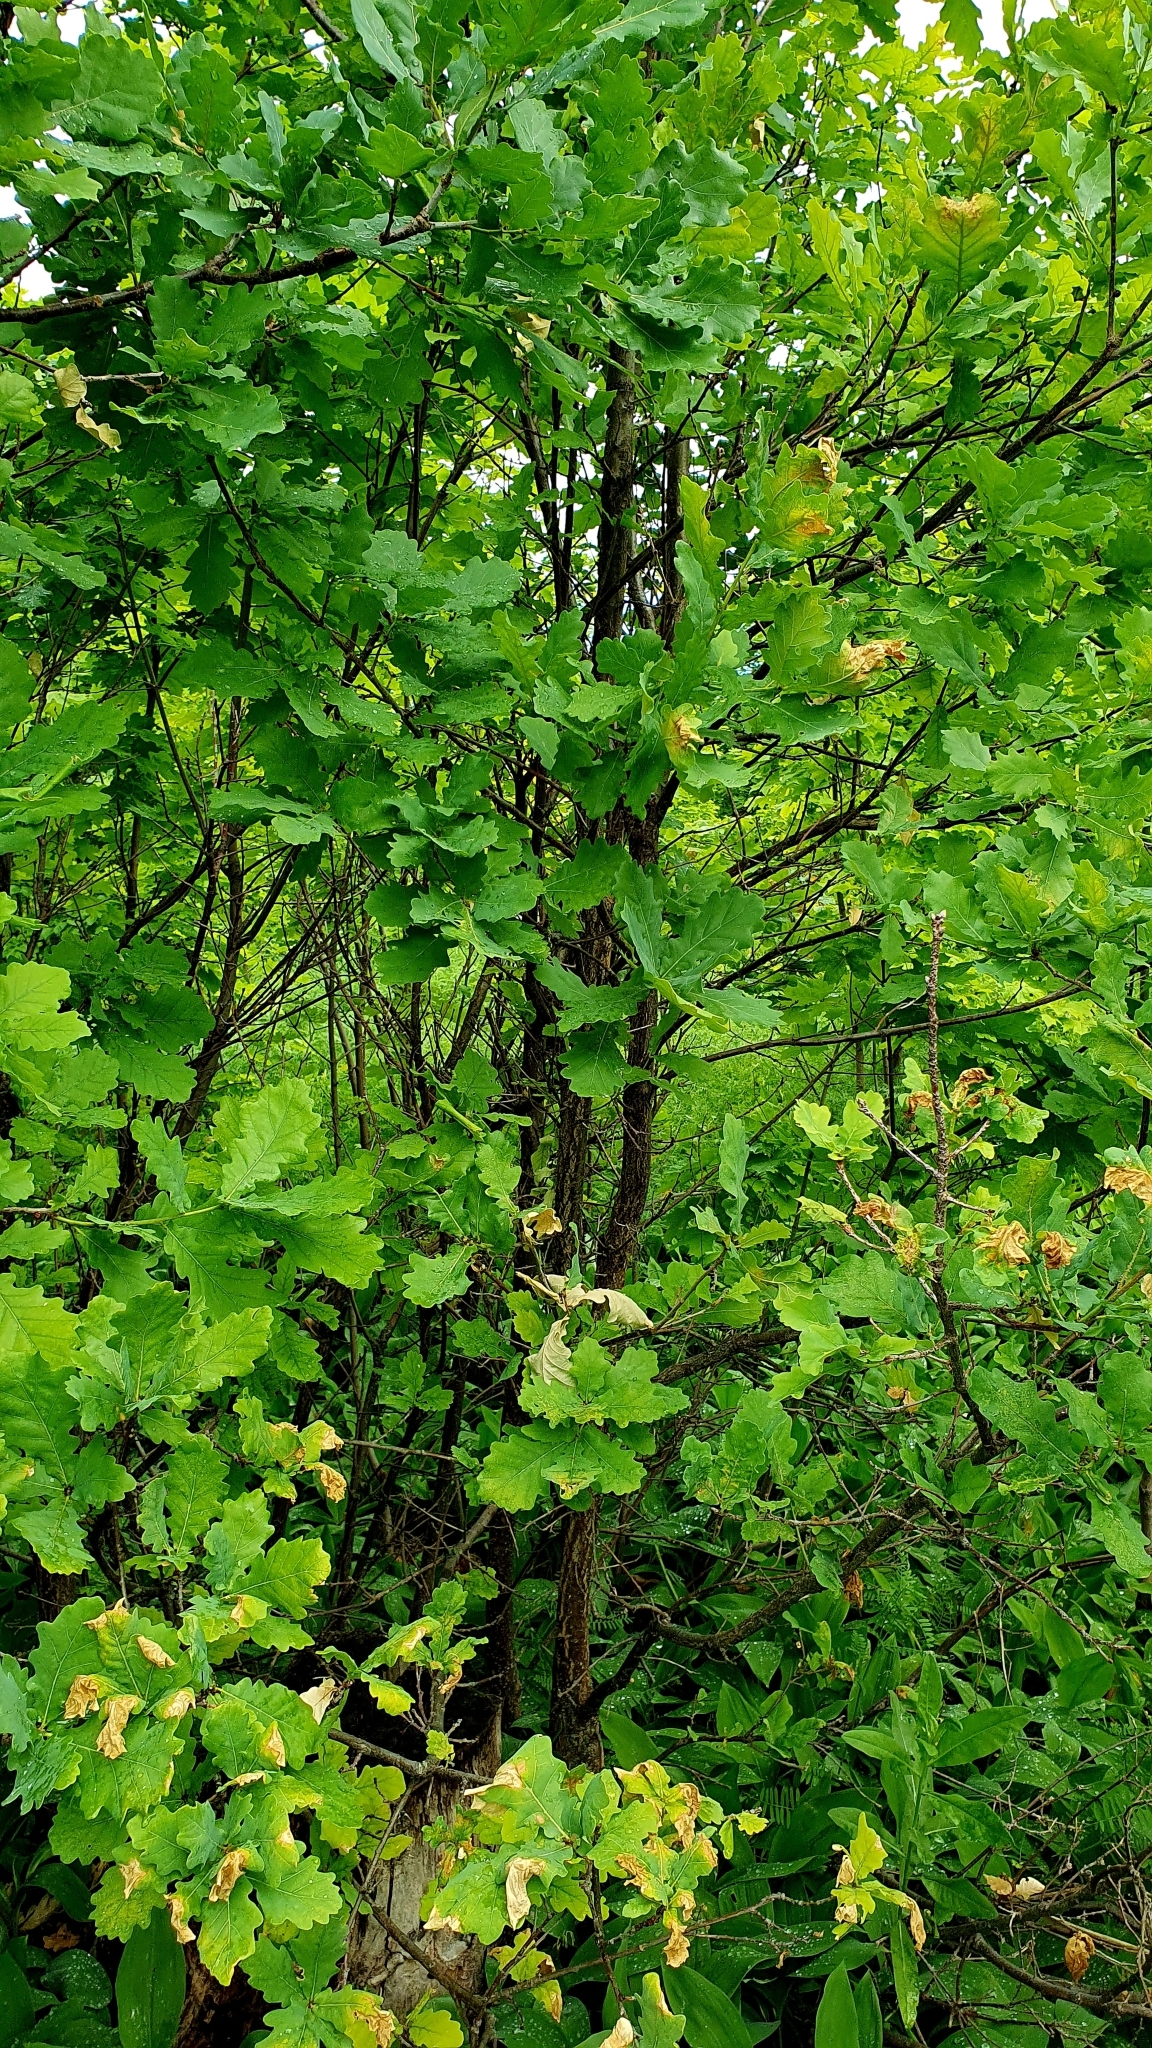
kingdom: Plantae
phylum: Tracheophyta
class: Magnoliopsida
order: Fagales
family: Fagaceae
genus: Quercus
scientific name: Quercus robur
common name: Pedunculate oak
